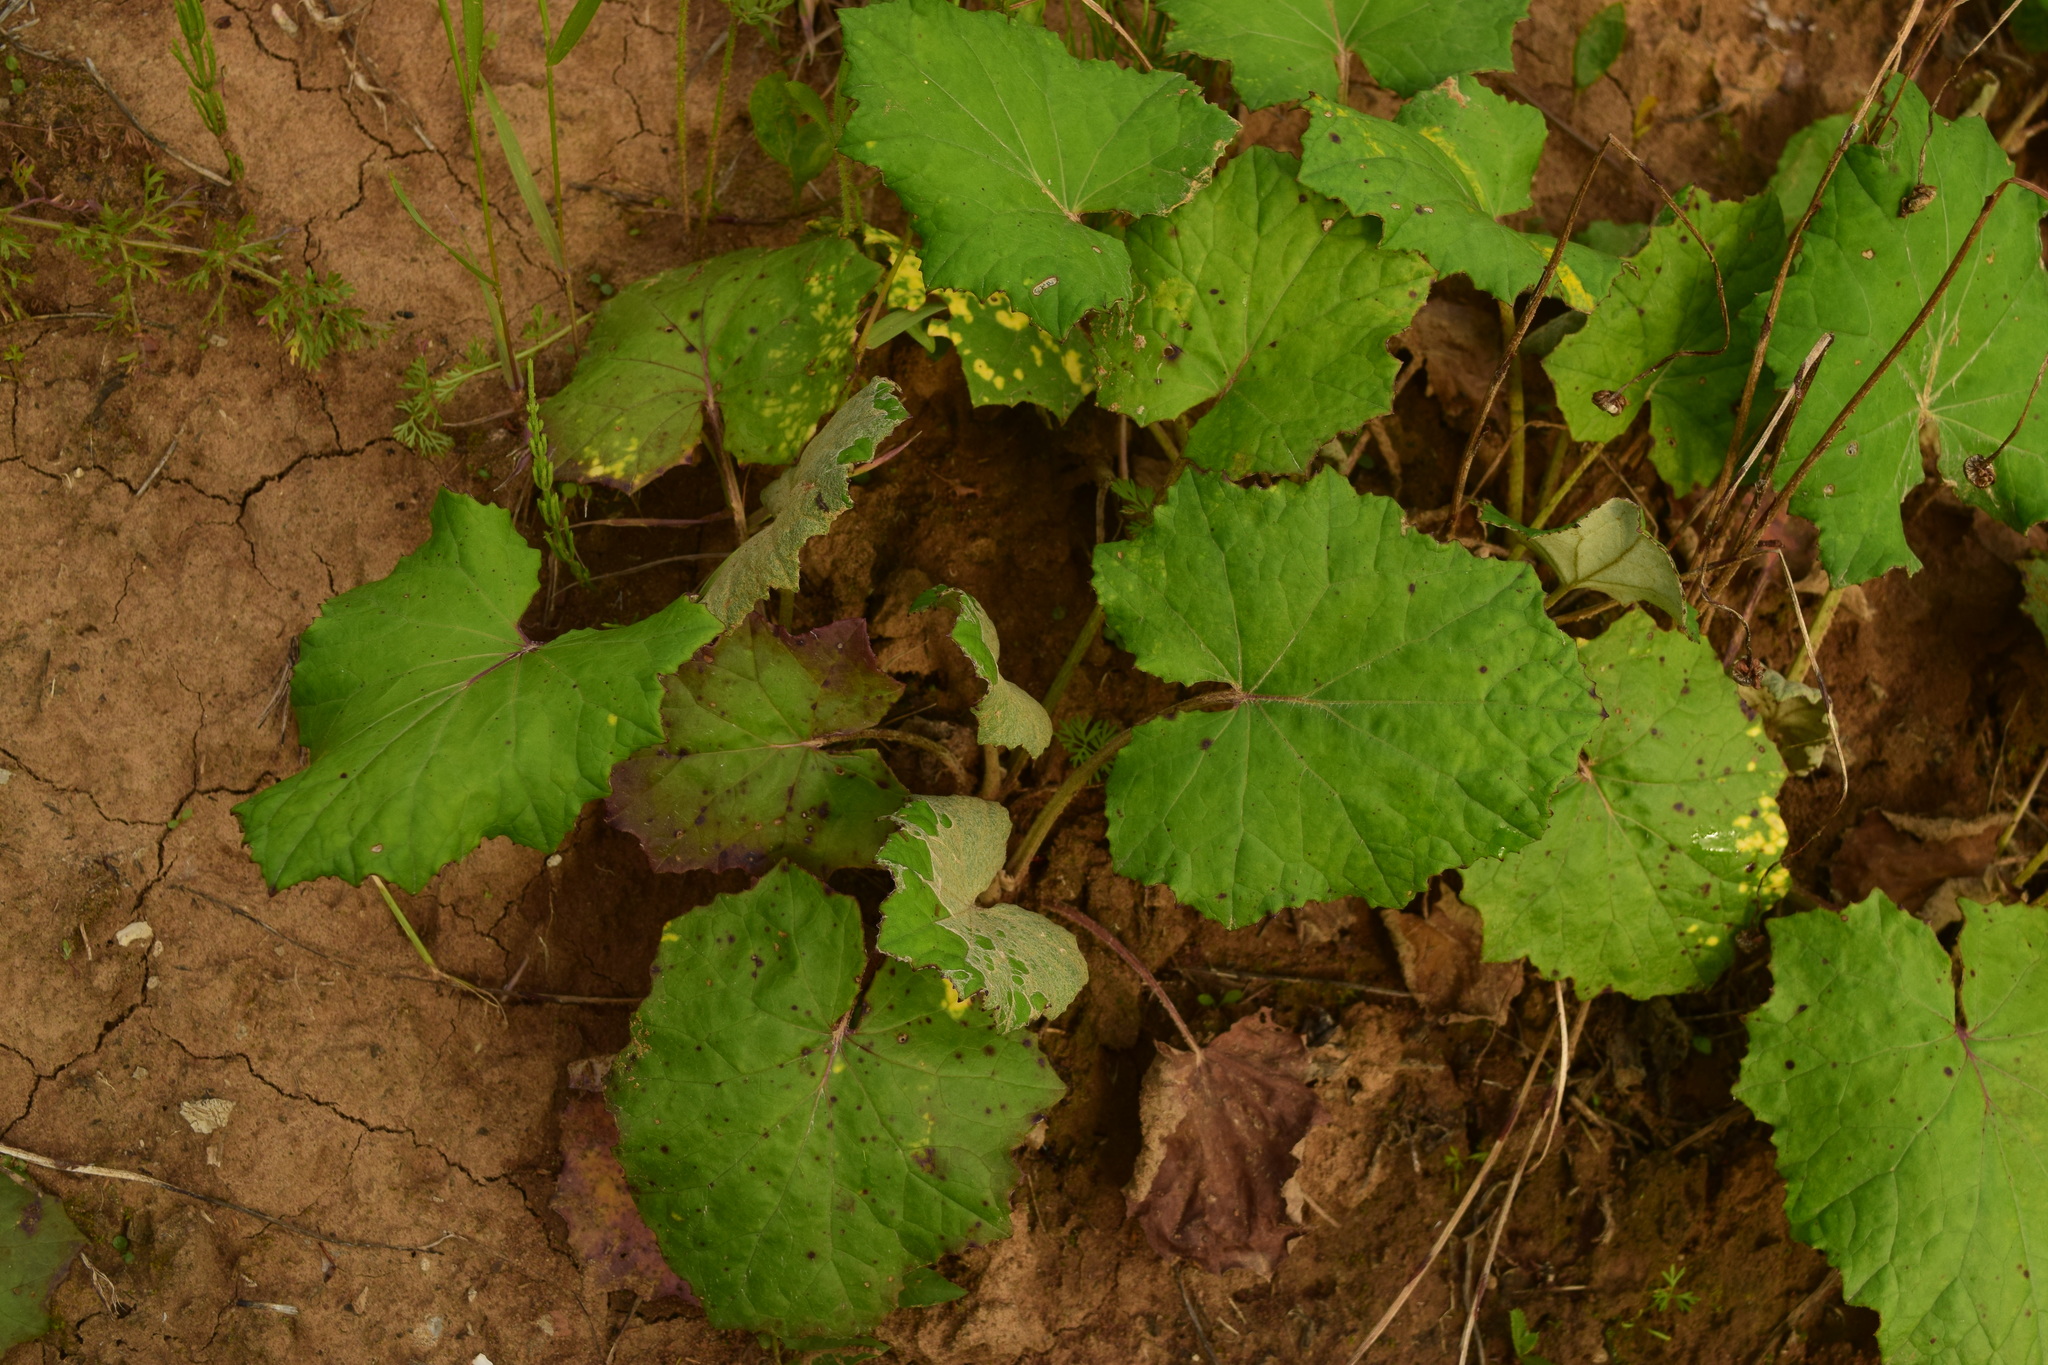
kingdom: Plantae
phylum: Tracheophyta
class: Magnoliopsida
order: Asterales
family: Asteraceae
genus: Tussilago
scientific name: Tussilago farfara
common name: Coltsfoot
